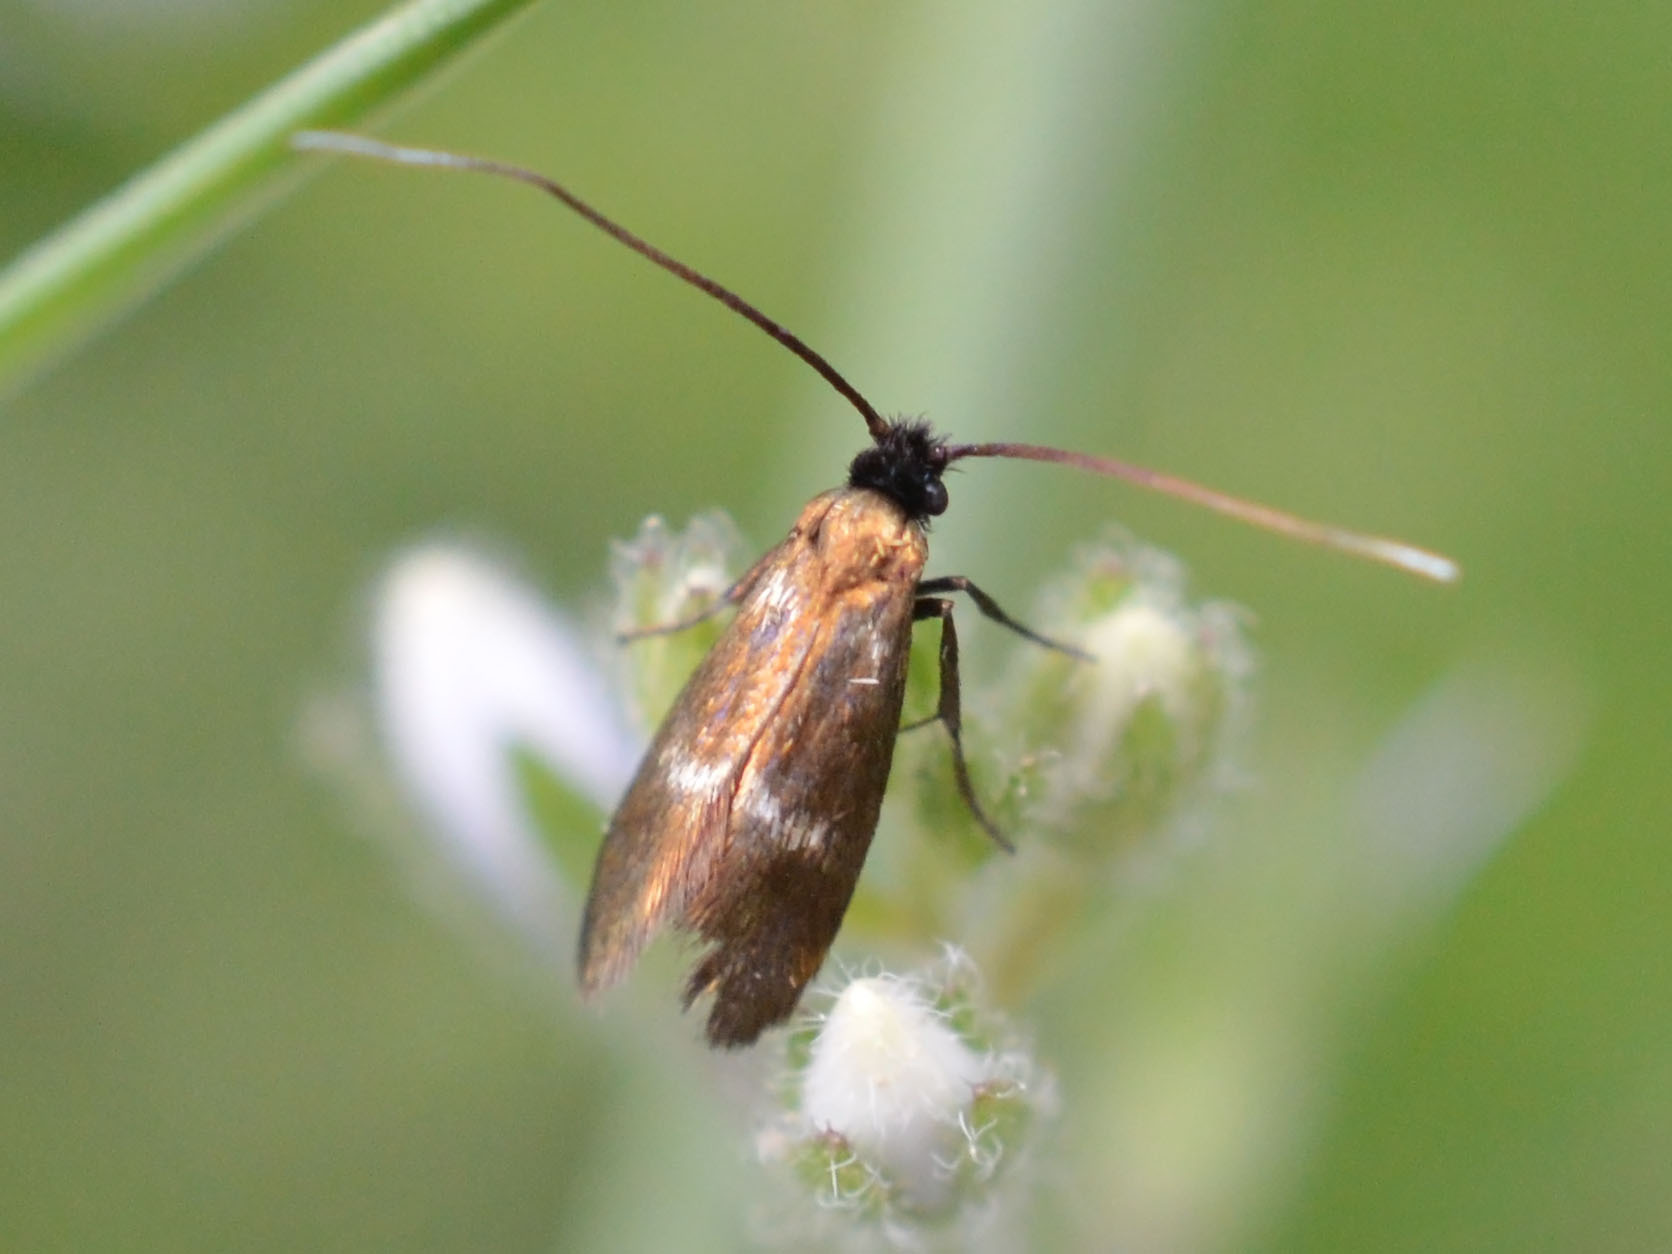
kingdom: Animalia
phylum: Arthropoda
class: Insecta
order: Lepidoptera
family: Adelidae
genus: Cauchas
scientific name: Cauchas fibulella
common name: Little long-horn
